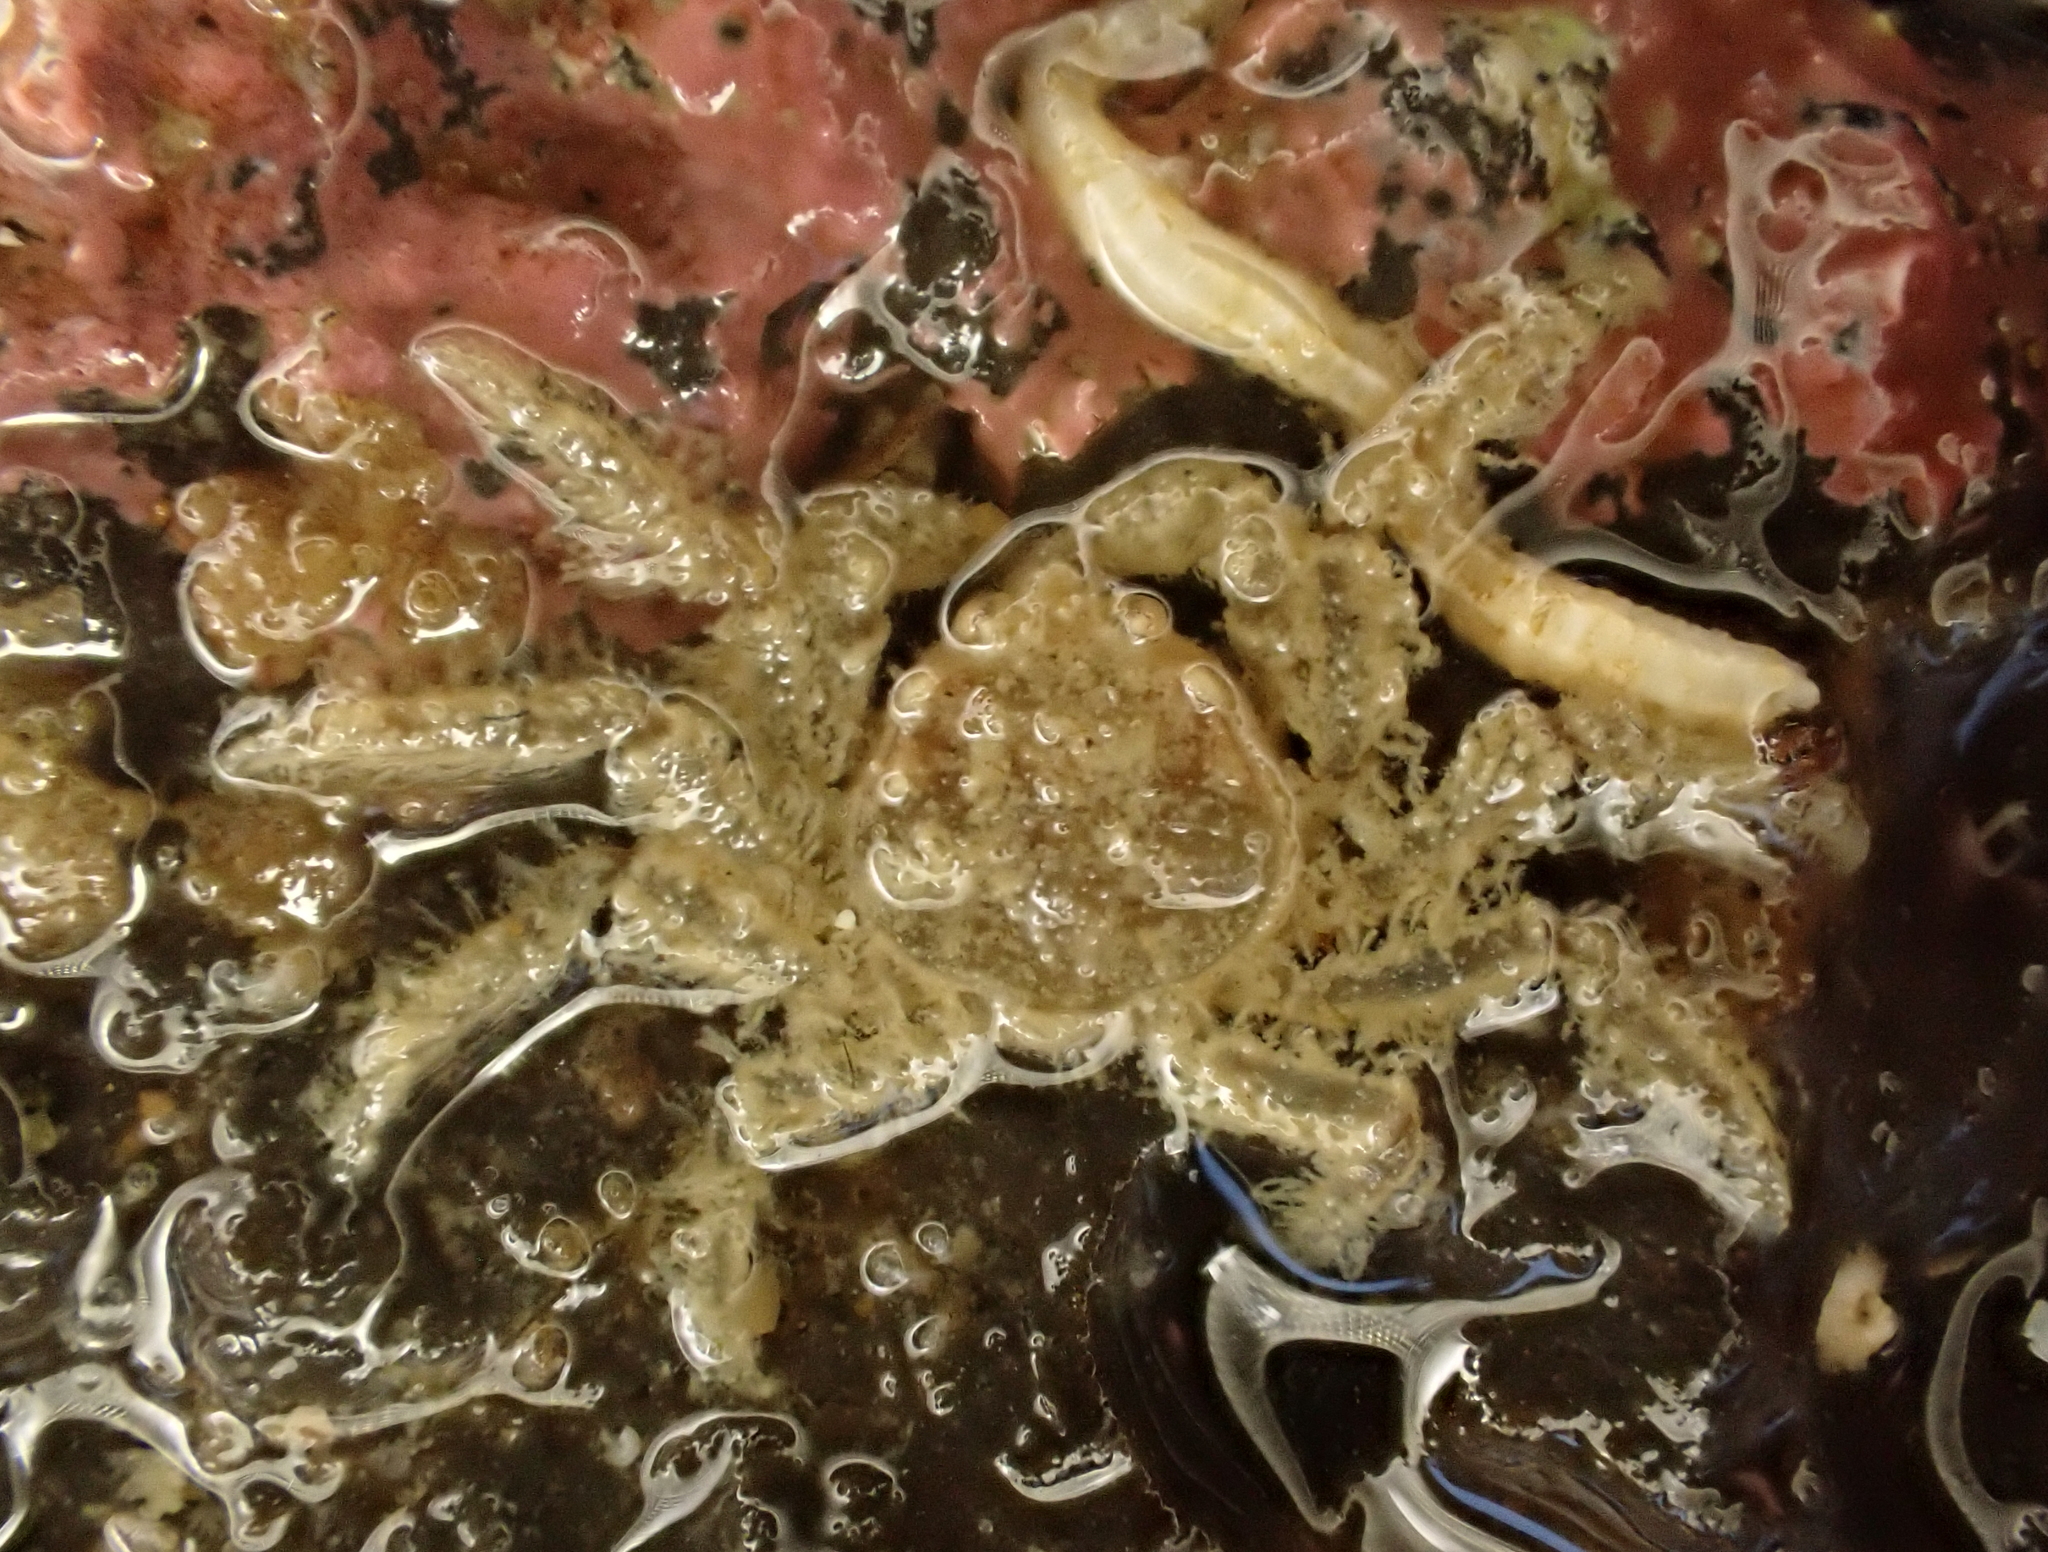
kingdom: Animalia
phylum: Arthropoda
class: Malacostraca
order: Decapoda
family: Hymenosomatidae
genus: Neohymenicus
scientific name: Neohymenicus pubescens
